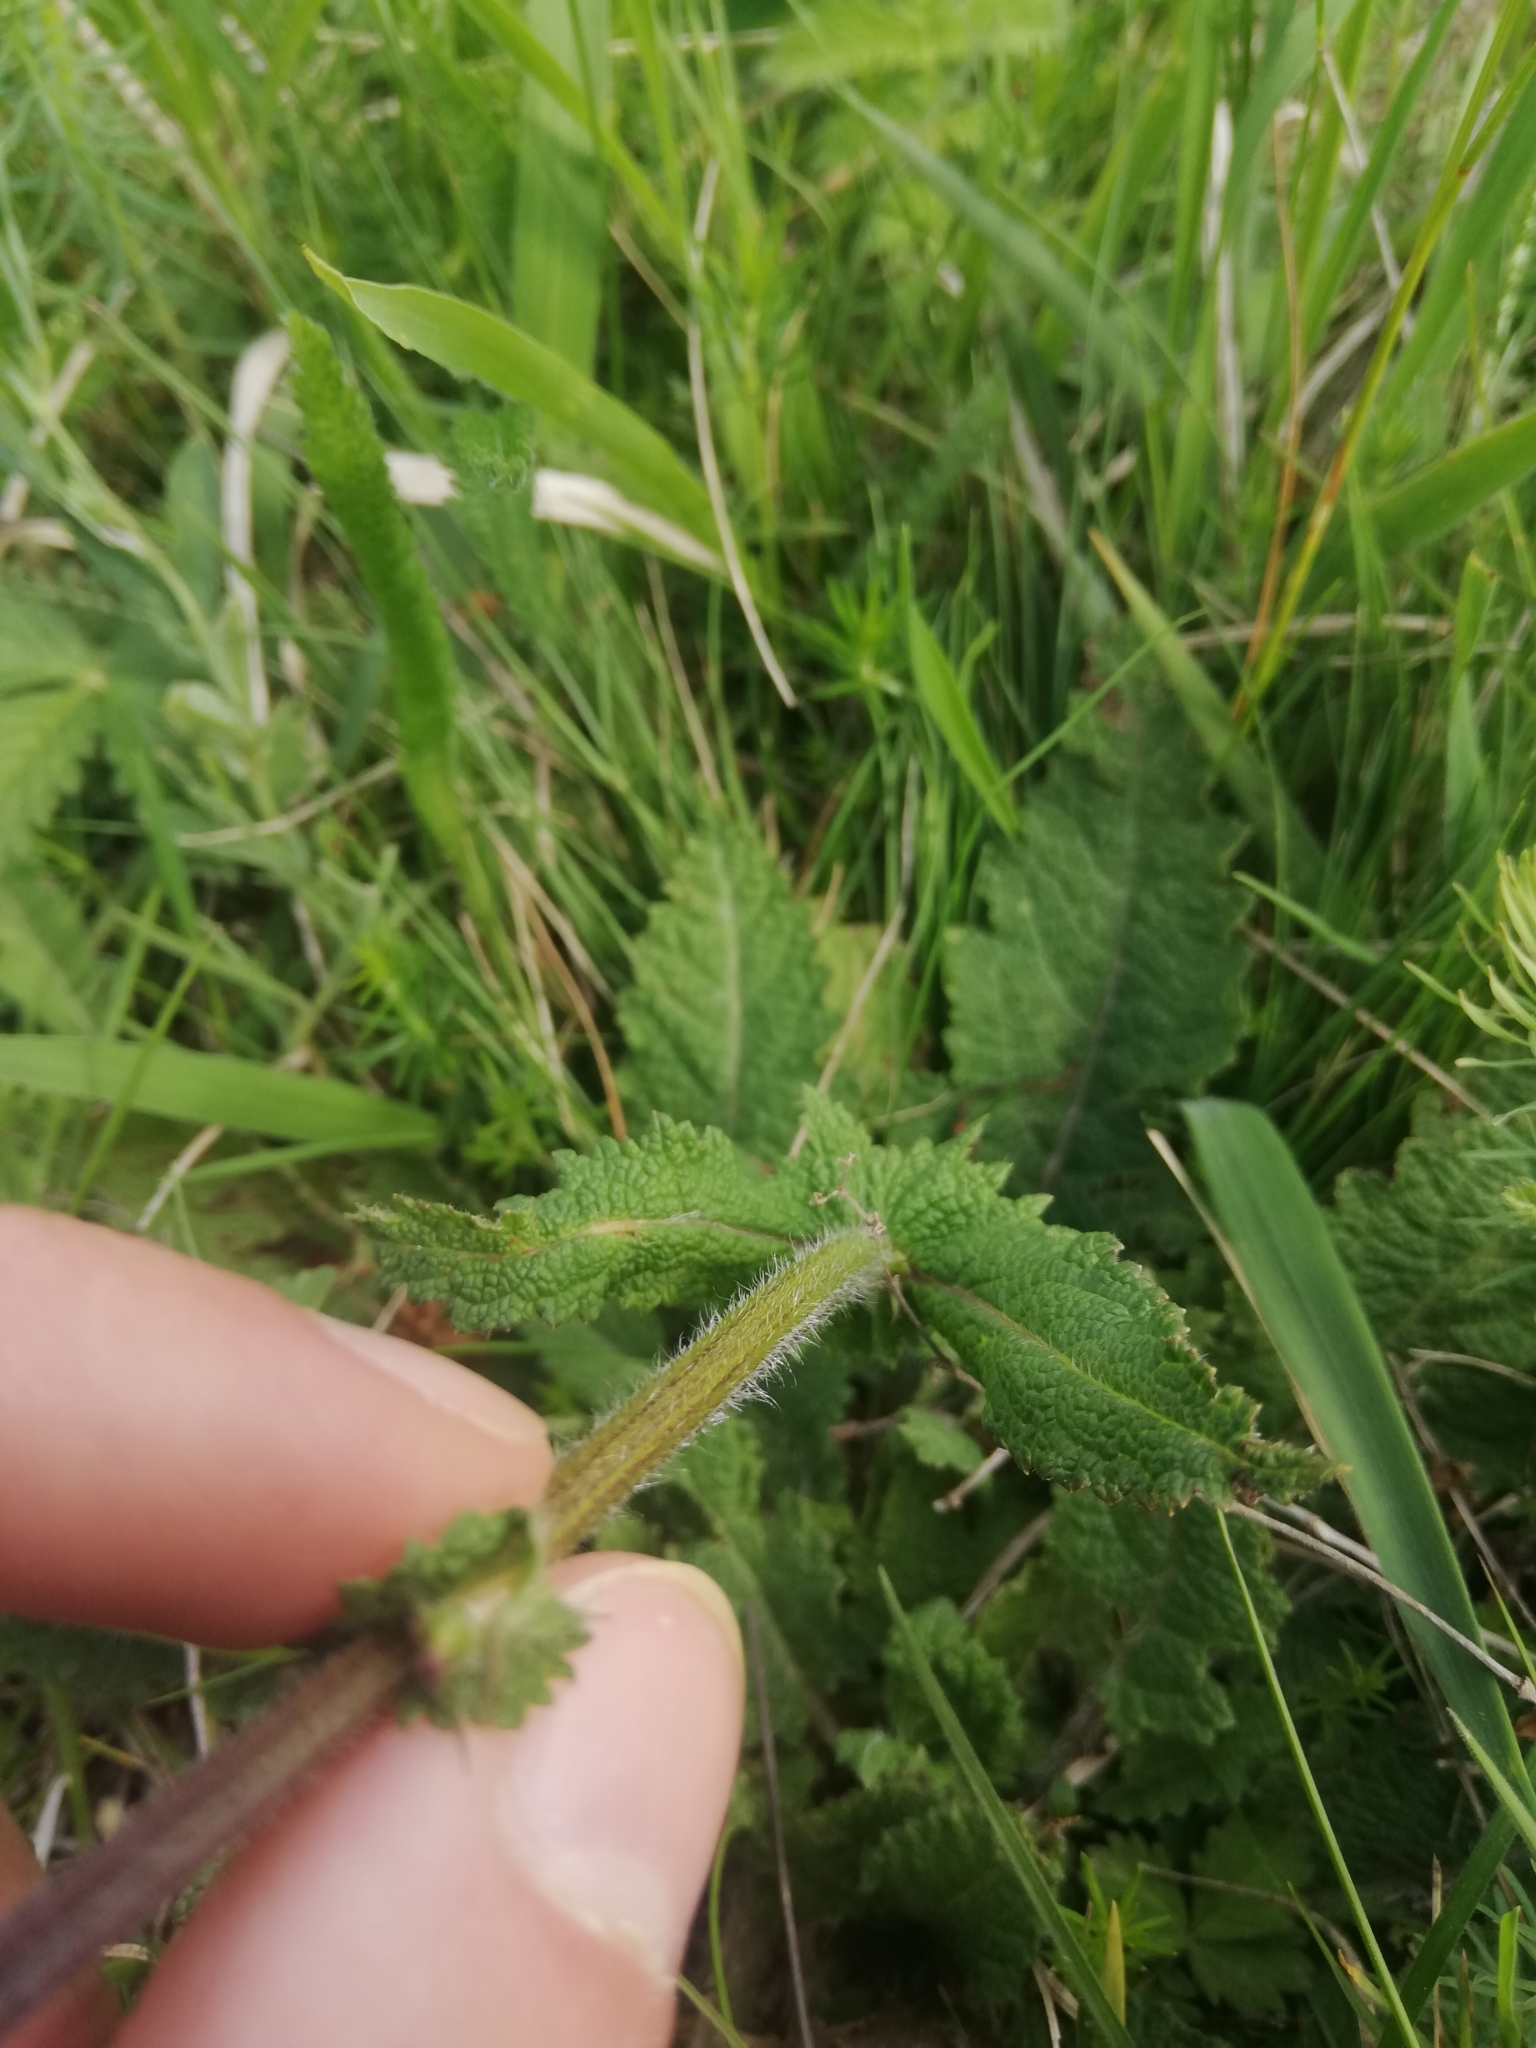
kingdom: Plantae
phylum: Tracheophyta
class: Magnoliopsida
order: Lamiales
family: Lamiaceae
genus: Salvia
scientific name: Salvia pratensis
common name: Meadow sage
